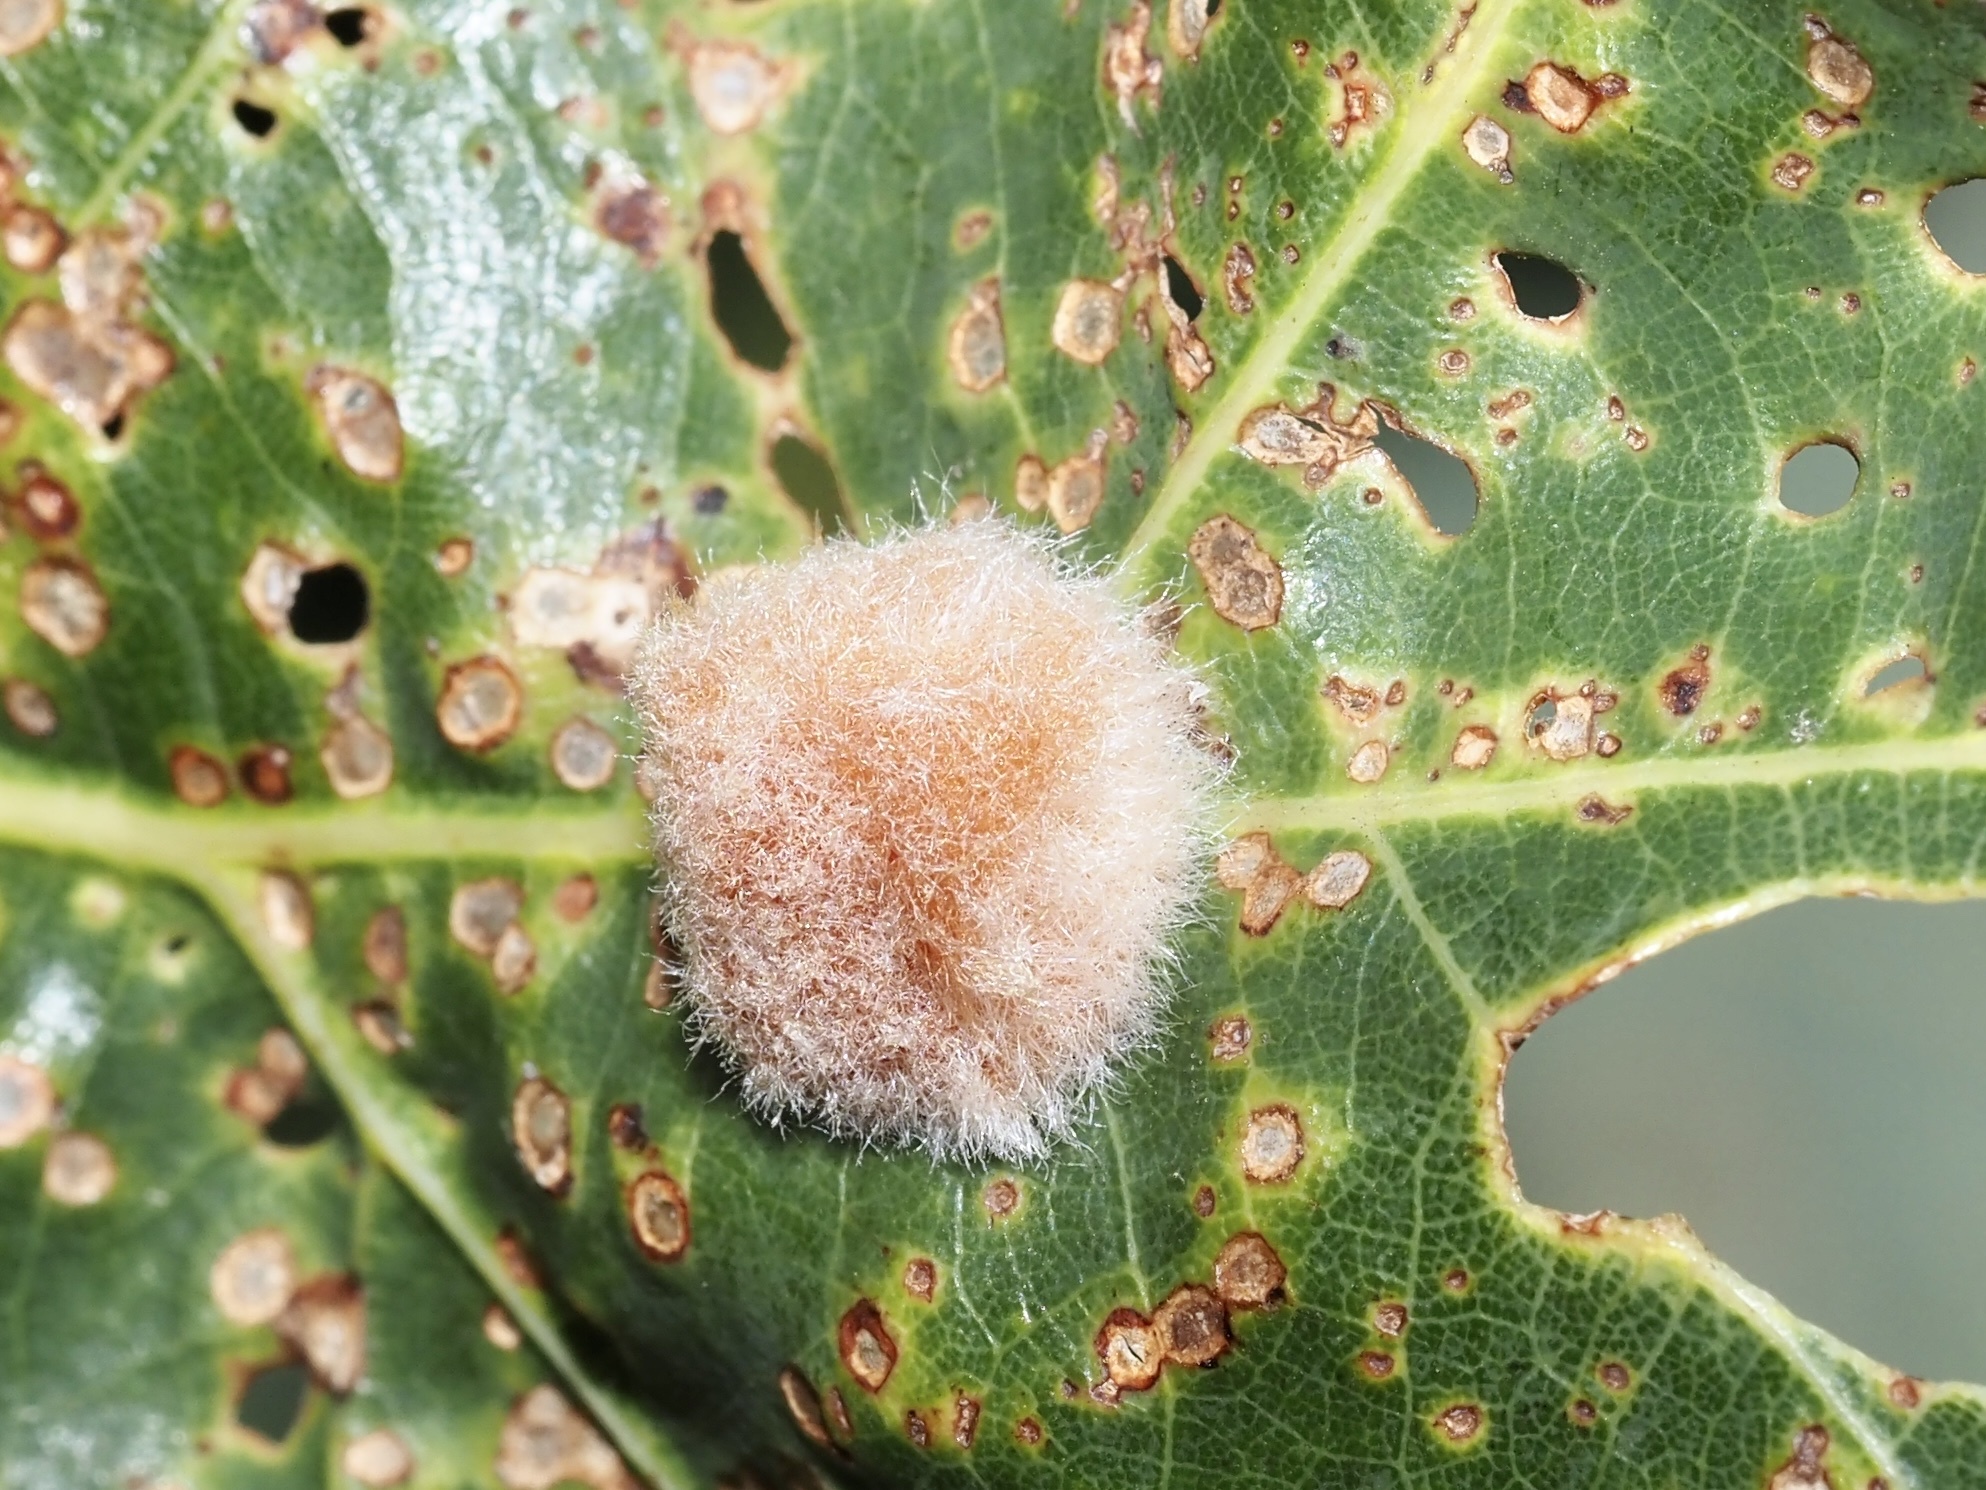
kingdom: Animalia
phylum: Arthropoda
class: Insecta
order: Hymenoptera
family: Cynipidae
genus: Andricus
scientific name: Andricus quercusflocci
